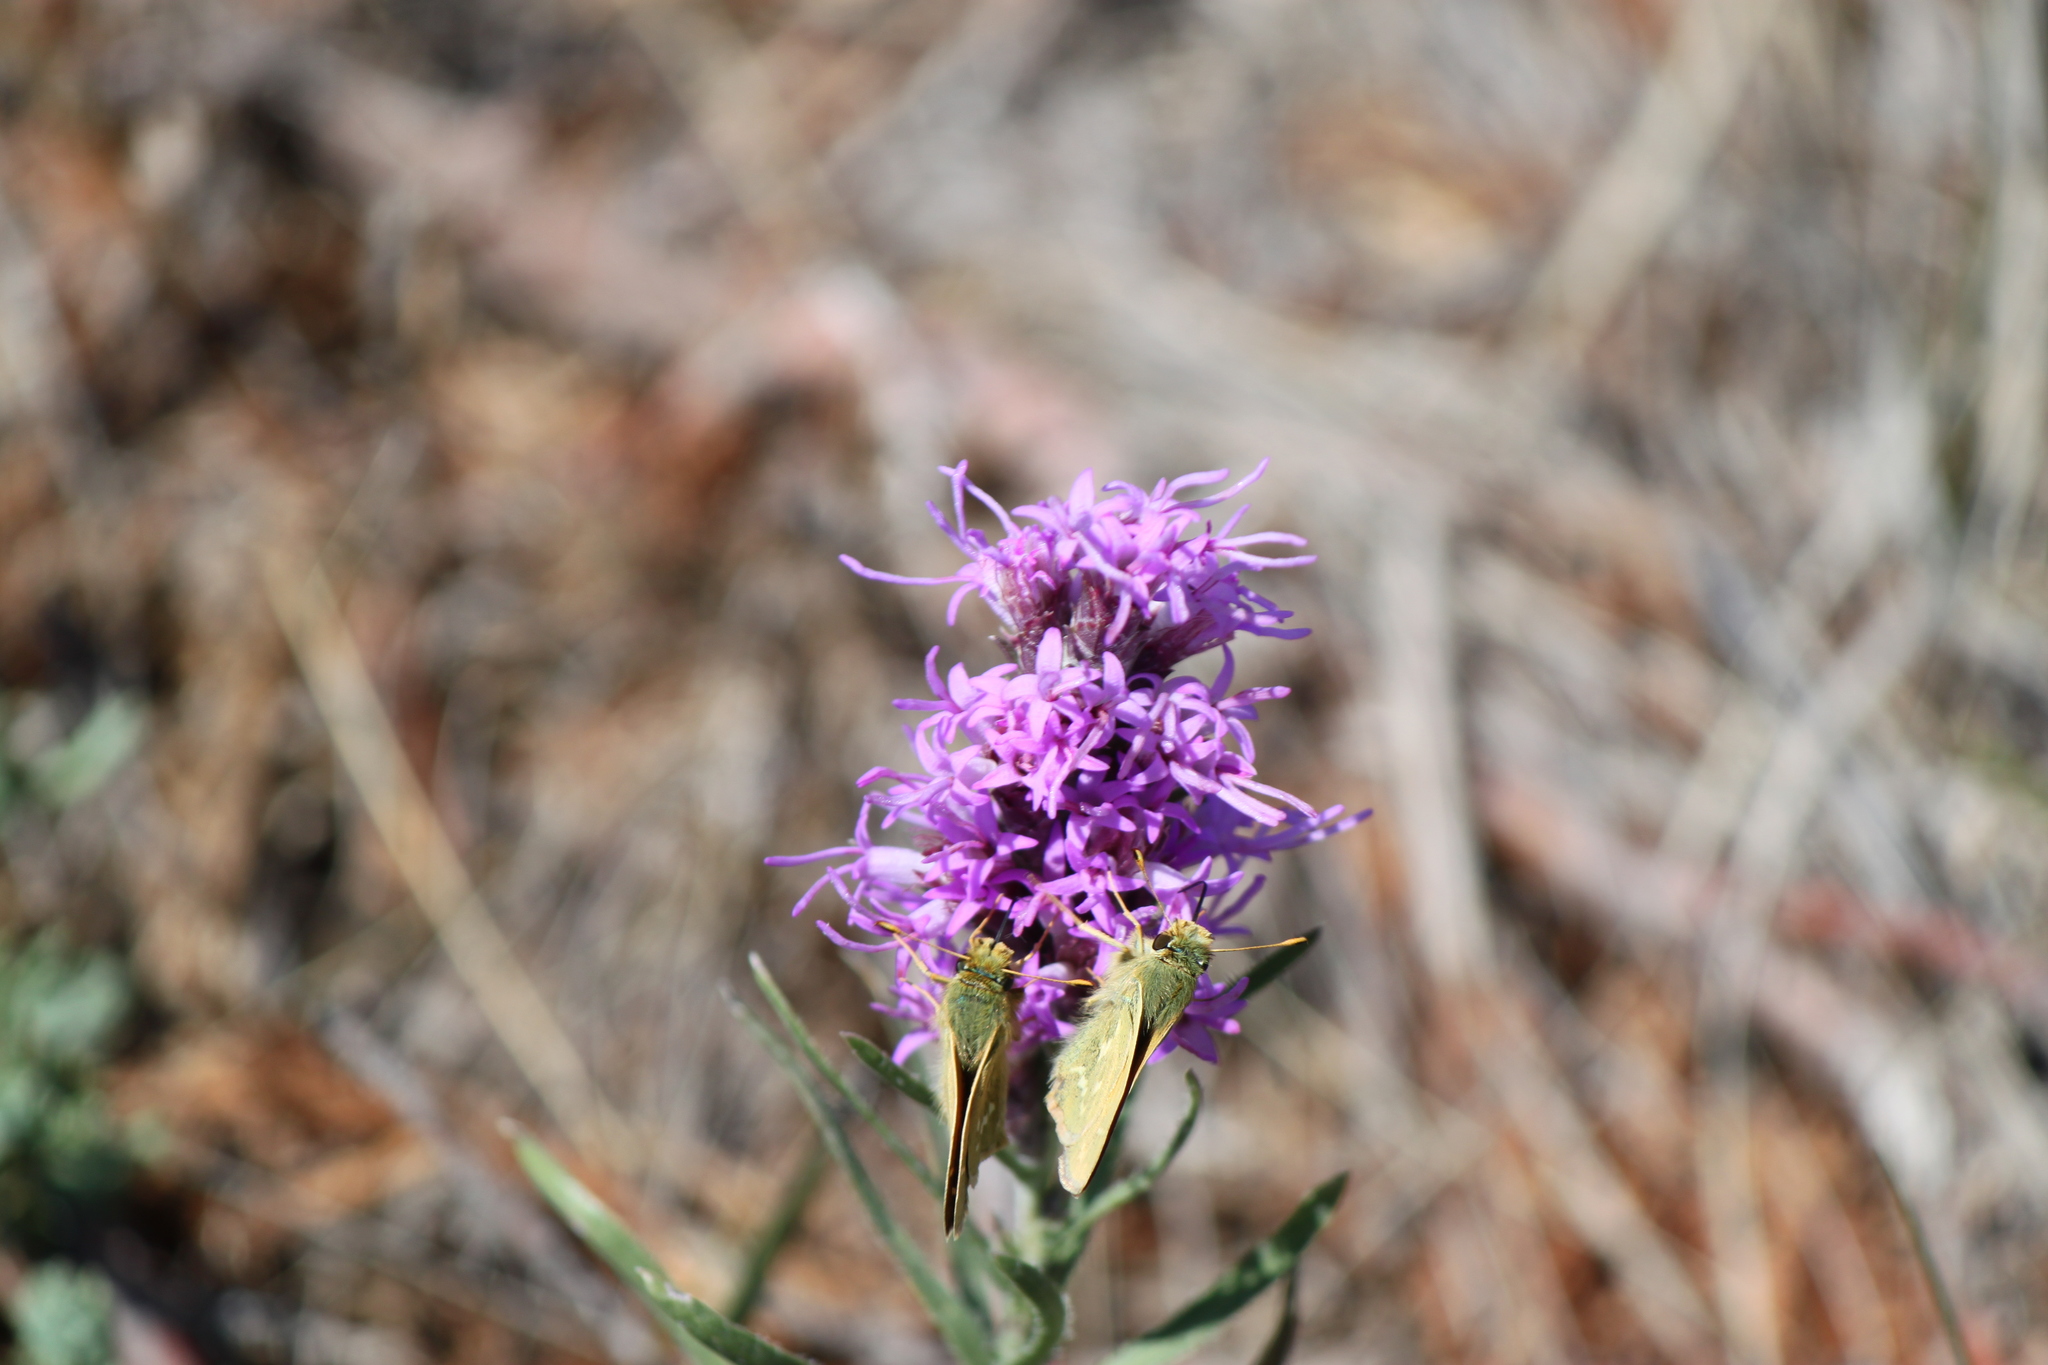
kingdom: Animalia
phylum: Arthropoda
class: Insecta
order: Lepidoptera
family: Hesperiidae
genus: Hesperia
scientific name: Hesperia comma
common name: Common branded skipper
